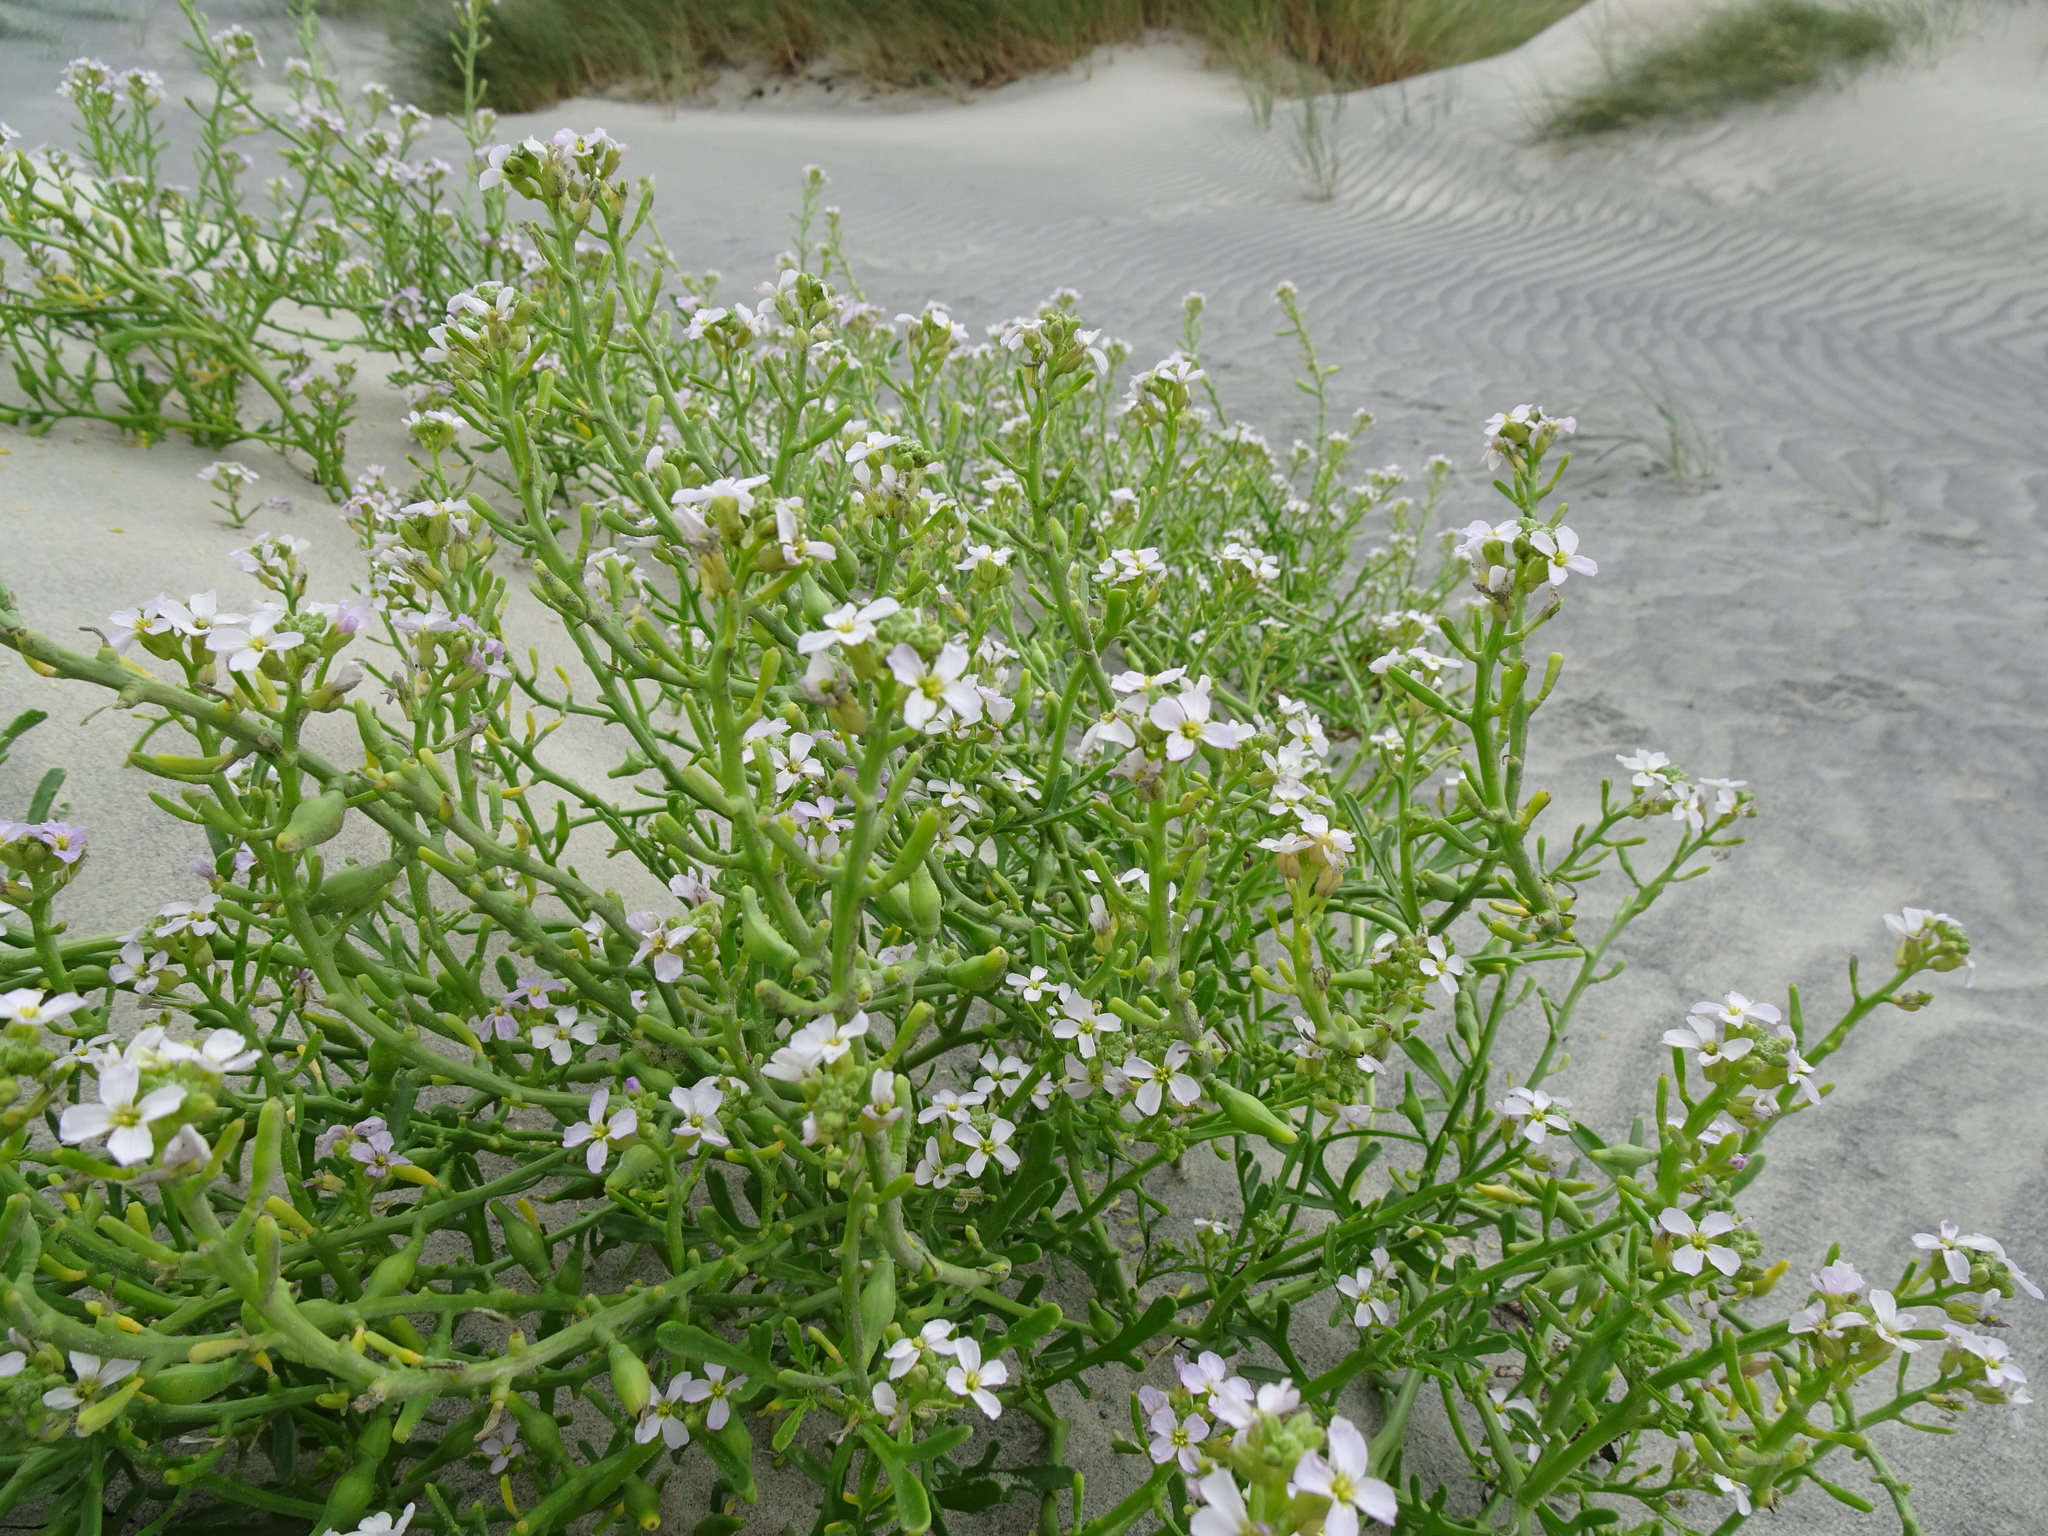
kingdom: Plantae
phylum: Tracheophyta
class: Magnoliopsida
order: Brassicales
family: Brassicaceae
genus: Cakile
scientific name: Cakile maritima
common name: Sea rocket
